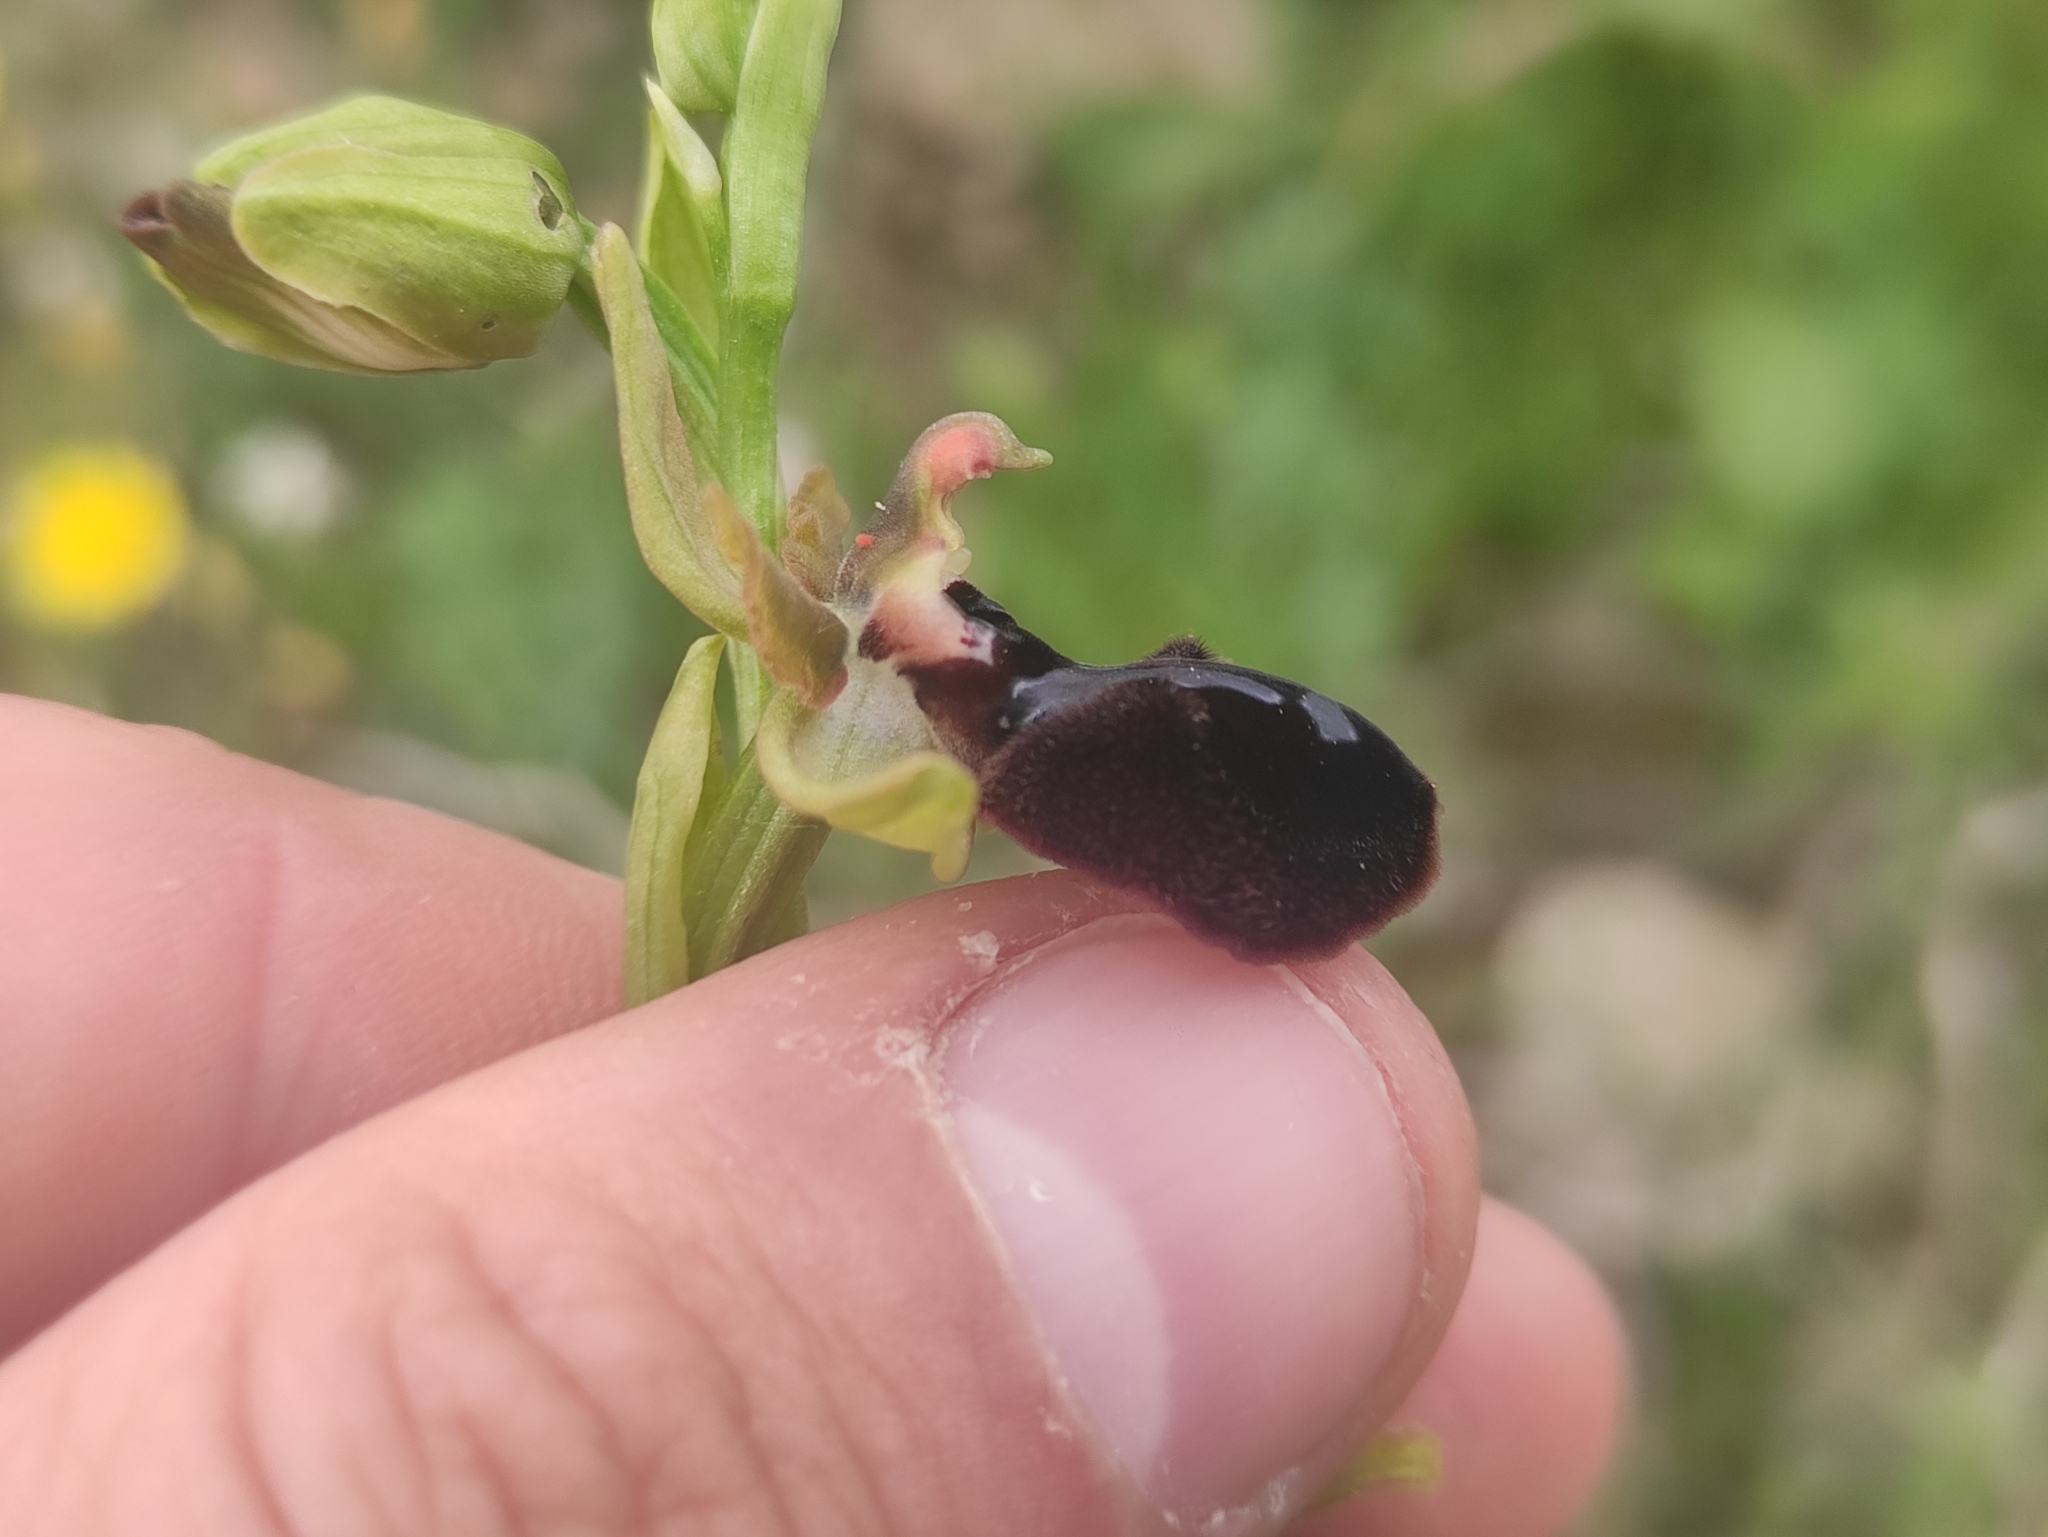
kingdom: Plantae
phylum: Tracheophyta
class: Liliopsida
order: Asparagales
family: Orchidaceae
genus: Ophrys
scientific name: Ophrys sphegodes
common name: Early spider-orchid
